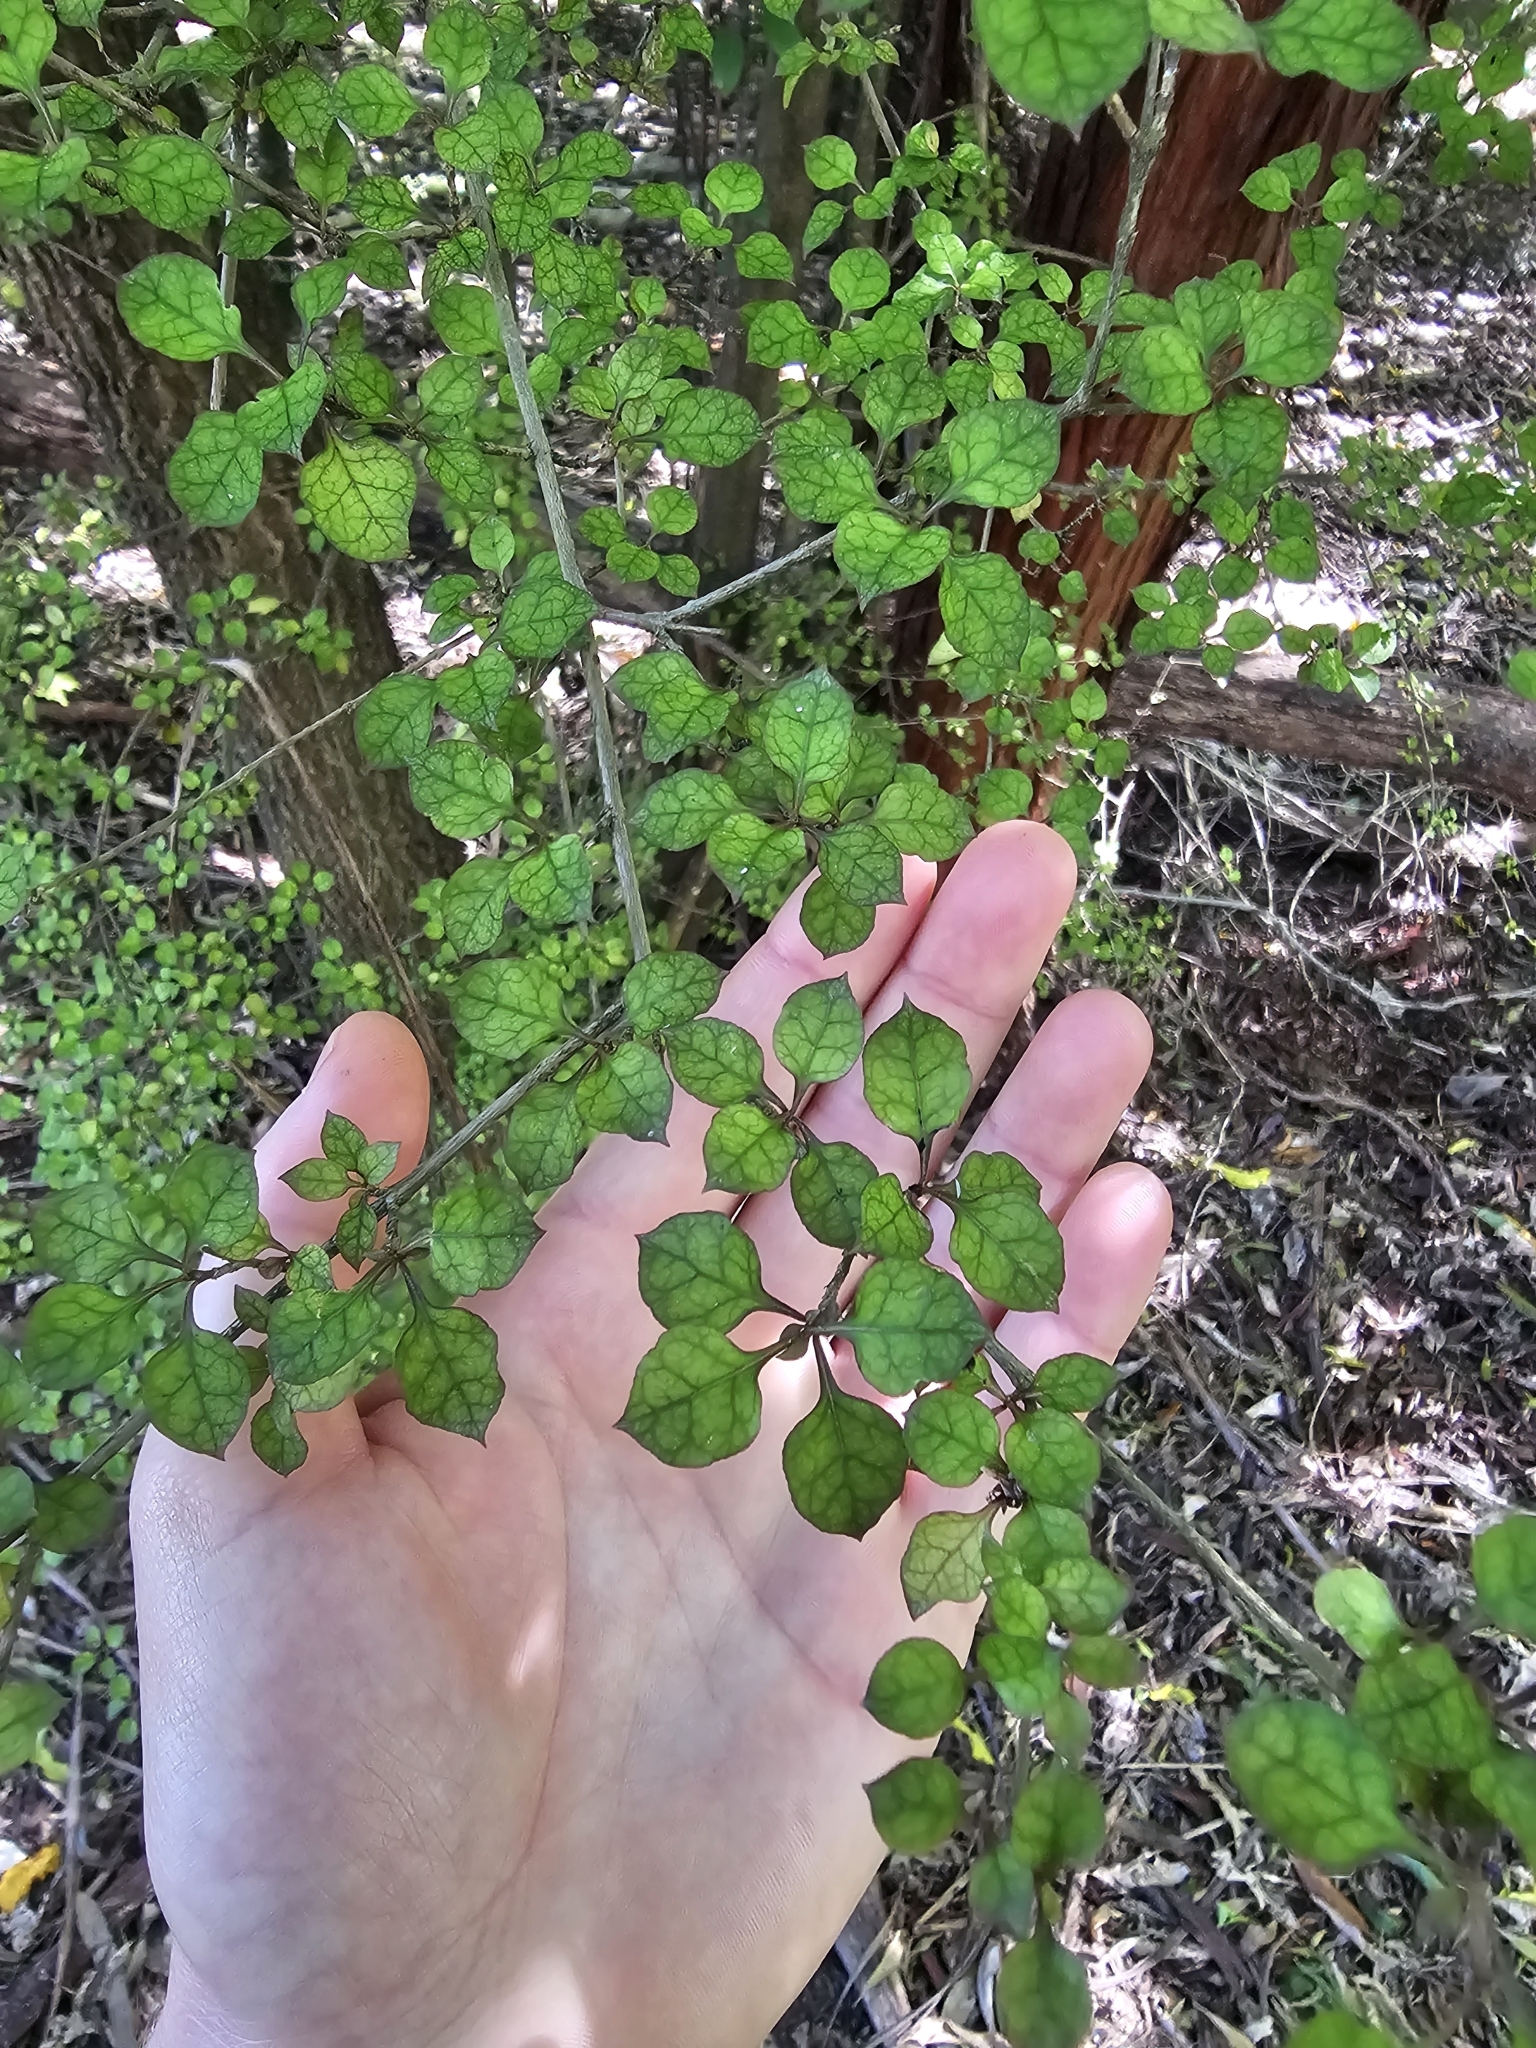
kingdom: Plantae
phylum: Tracheophyta
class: Magnoliopsida
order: Gentianales
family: Rubiaceae
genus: Coprosma
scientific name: Coprosma areolata
